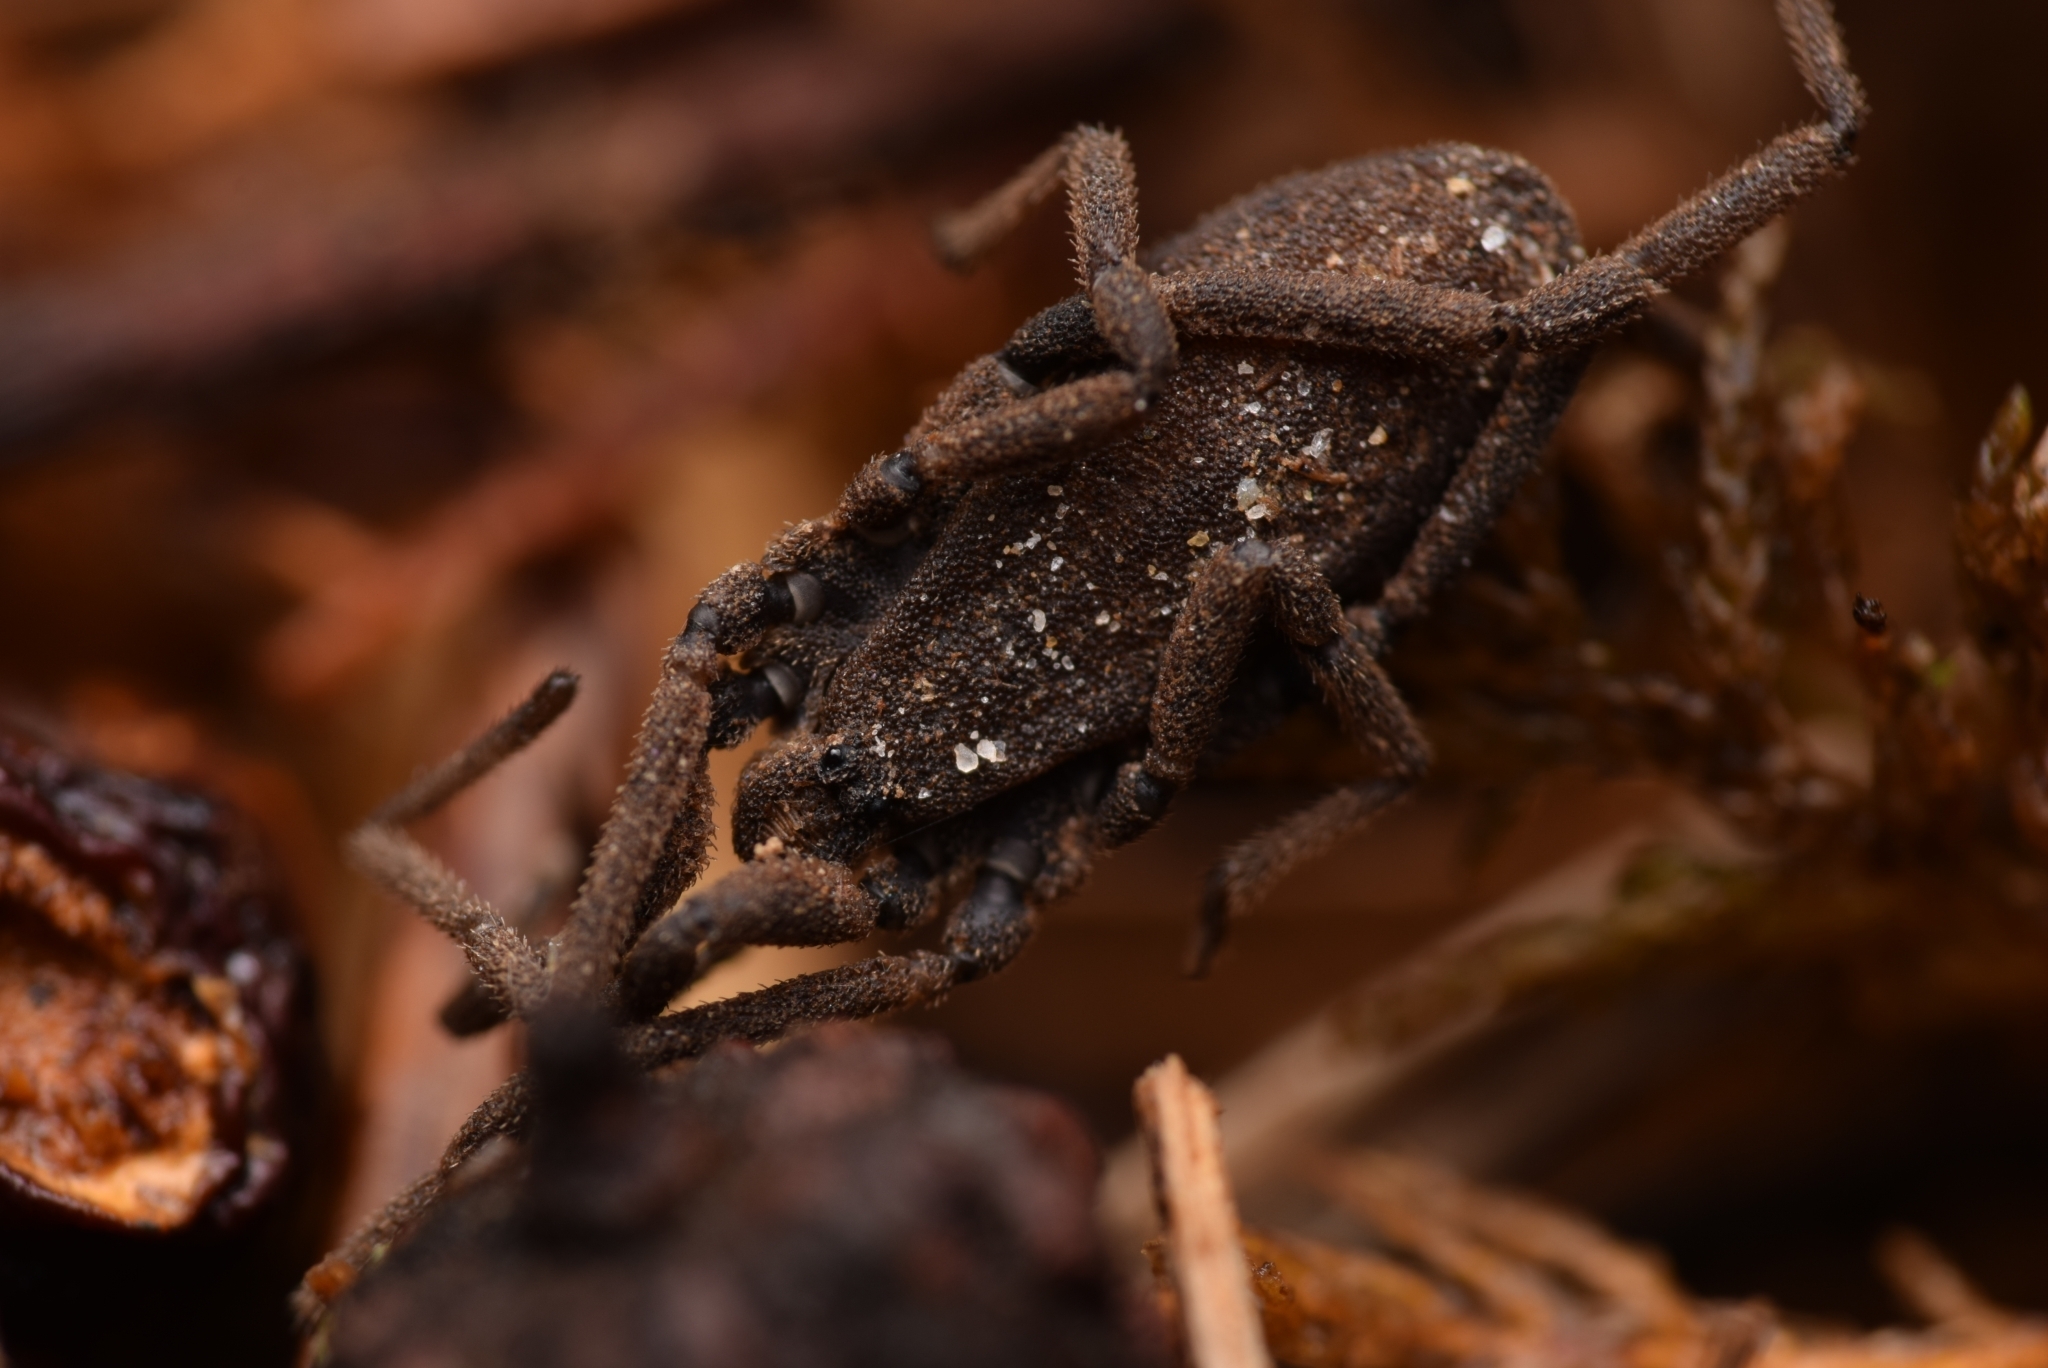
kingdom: Animalia
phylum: Arthropoda
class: Arachnida
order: Opiliones
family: Trogulidae
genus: Trogulus
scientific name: Trogulus nepaeformis
